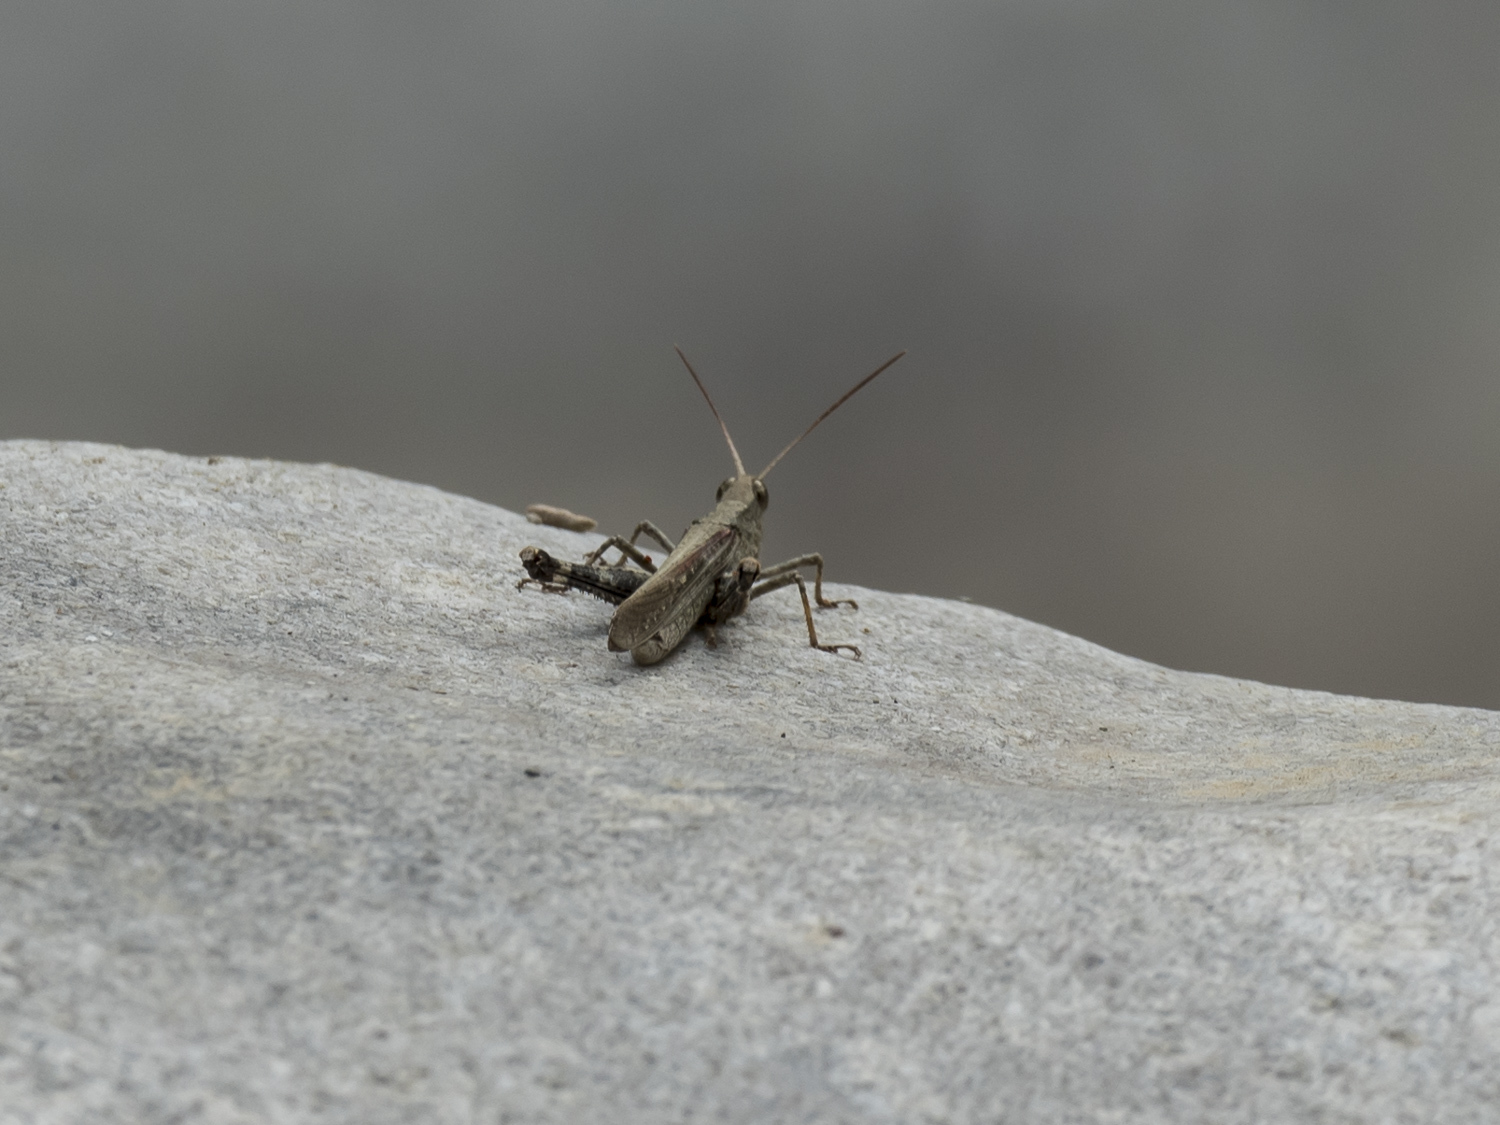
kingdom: Animalia
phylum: Arthropoda
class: Insecta
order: Orthoptera
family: Acrididae
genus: Sikkimiana
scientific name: Sikkimiana darjeelingensis
